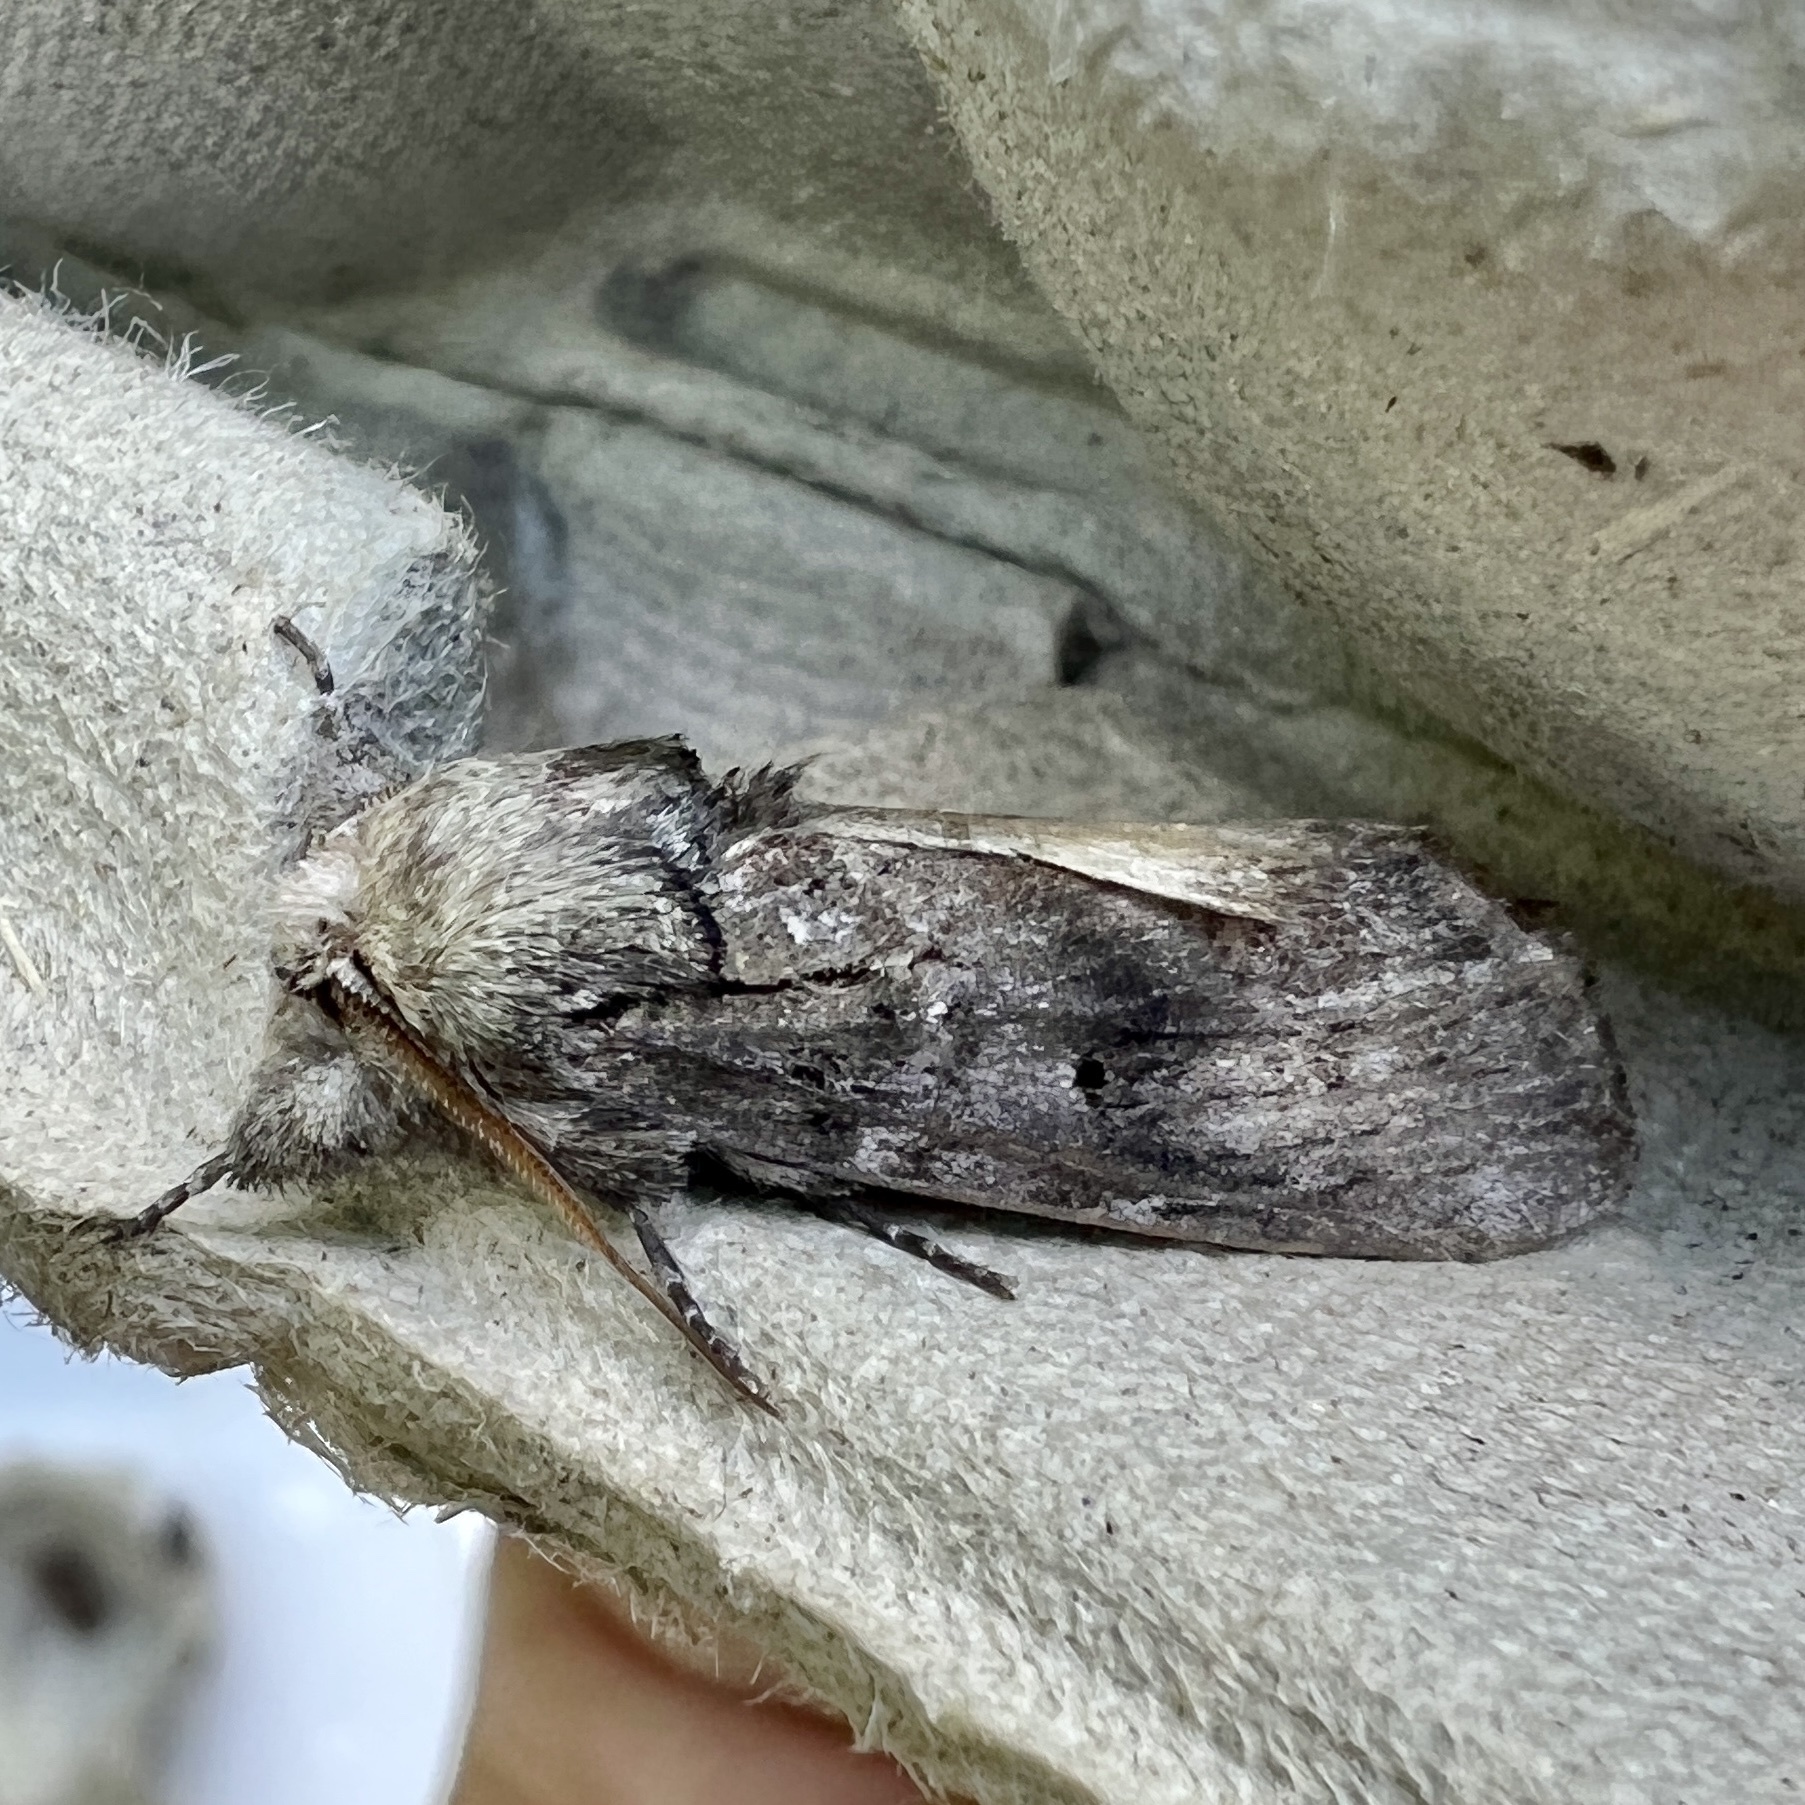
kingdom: Animalia
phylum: Arthropoda
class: Insecta
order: Lepidoptera
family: Notodontidae
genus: Schizura
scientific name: Schizura
